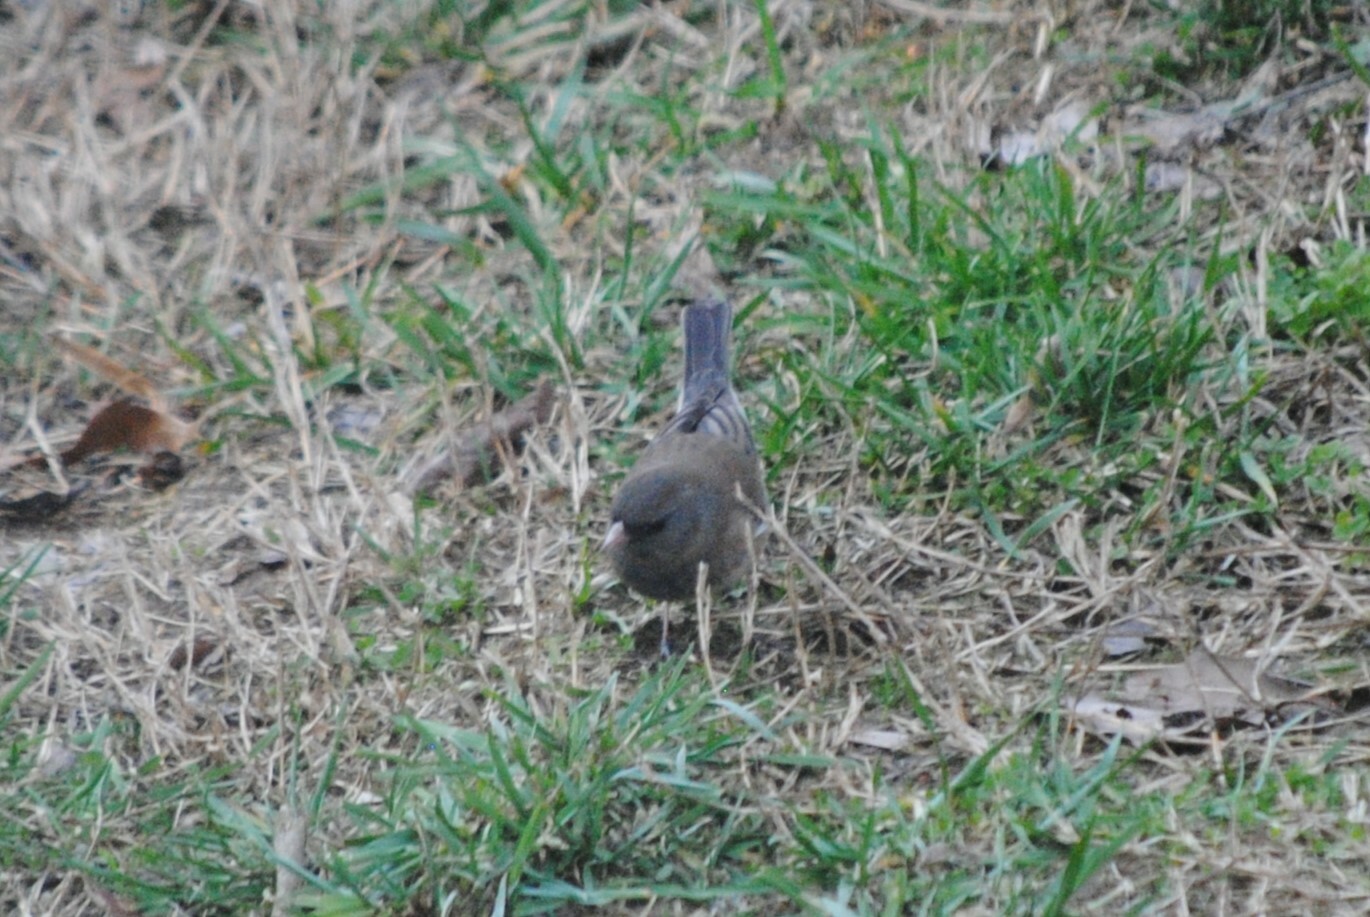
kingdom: Animalia
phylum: Chordata
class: Aves
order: Passeriformes
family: Passerellidae
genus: Junco
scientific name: Junco hyemalis
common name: Dark-eyed junco
